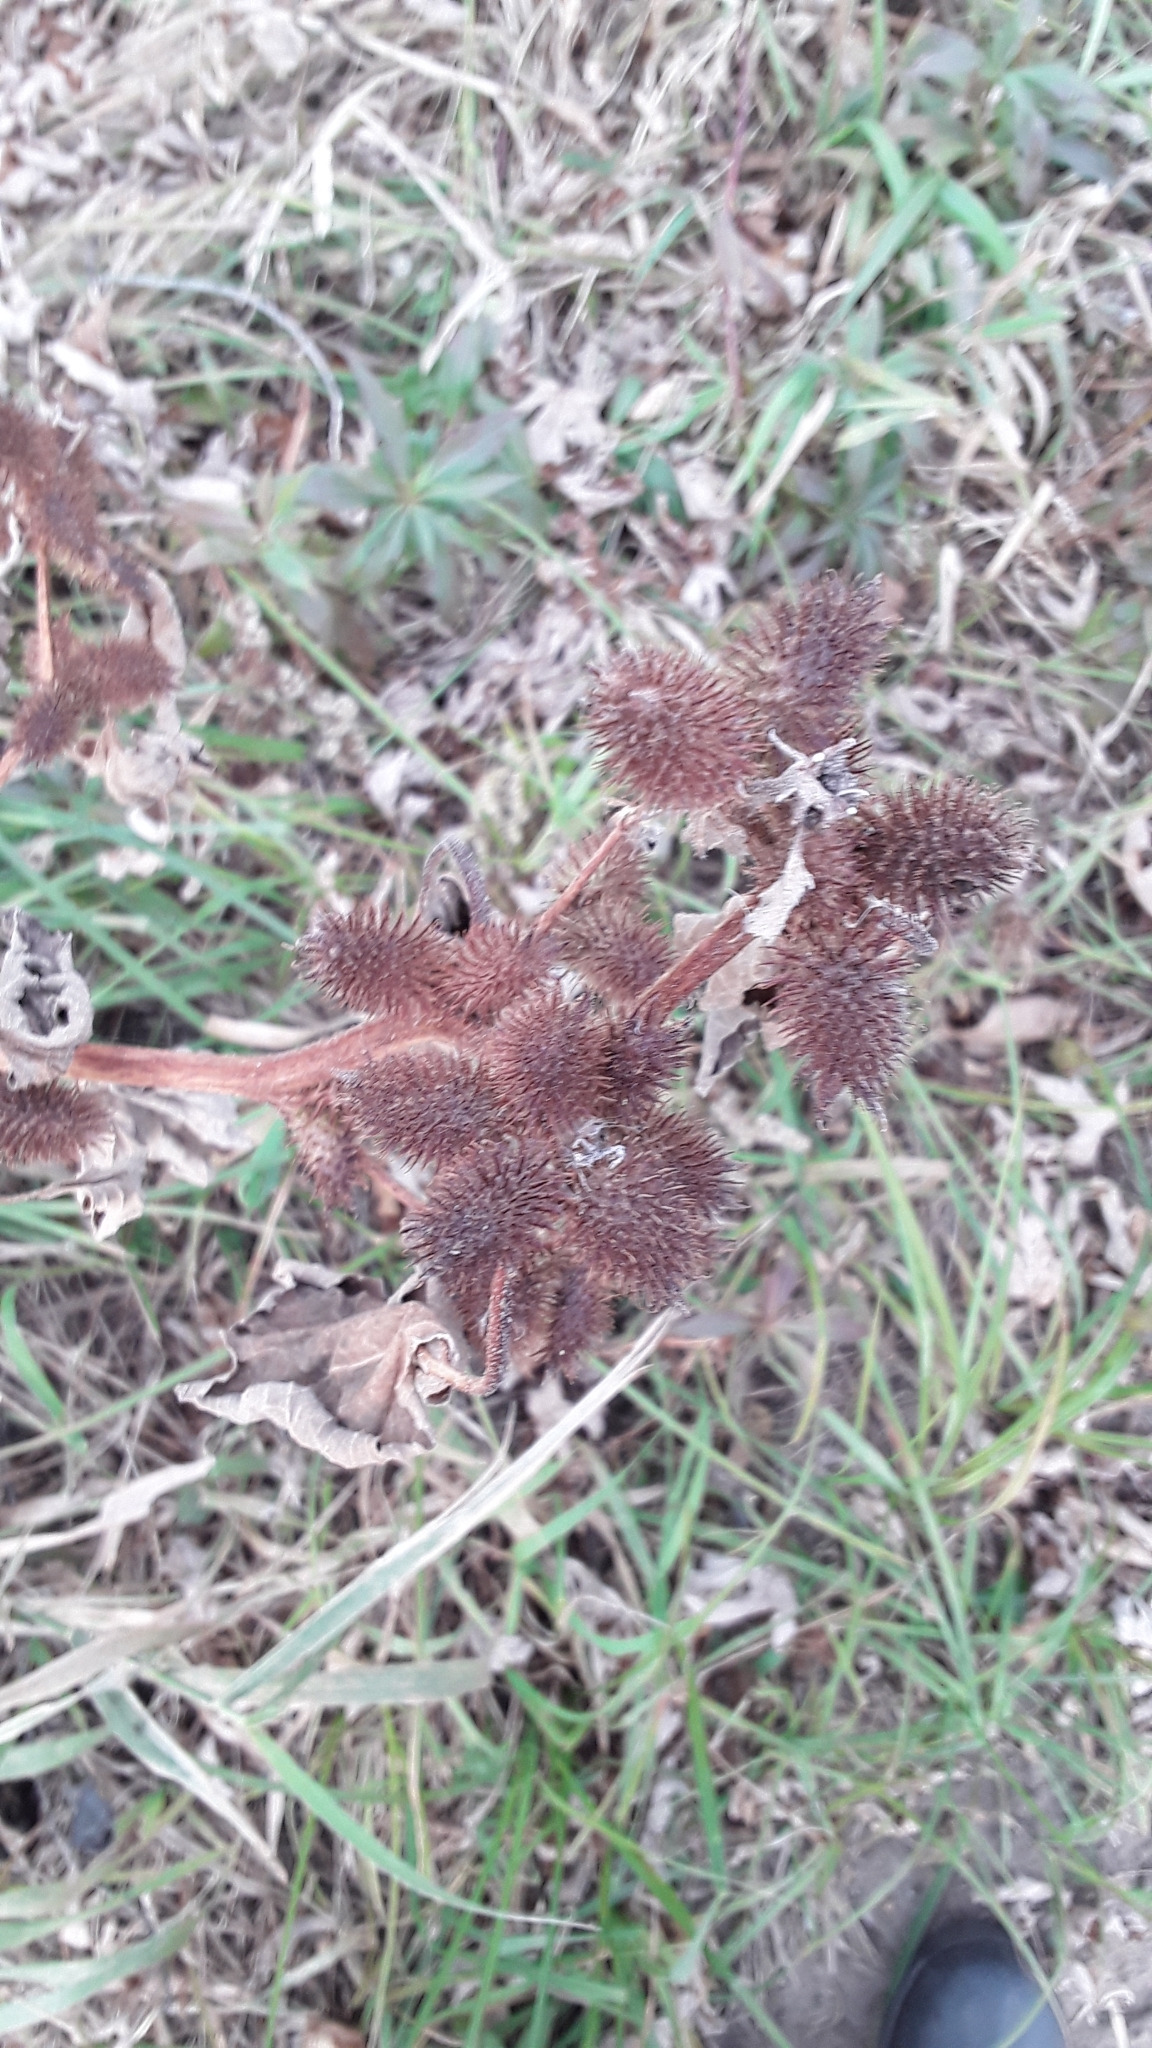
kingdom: Plantae
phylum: Tracheophyta
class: Magnoliopsida
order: Asterales
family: Asteraceae
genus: Xanthium
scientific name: Xanthium strumarium
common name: Rough cocklebur
